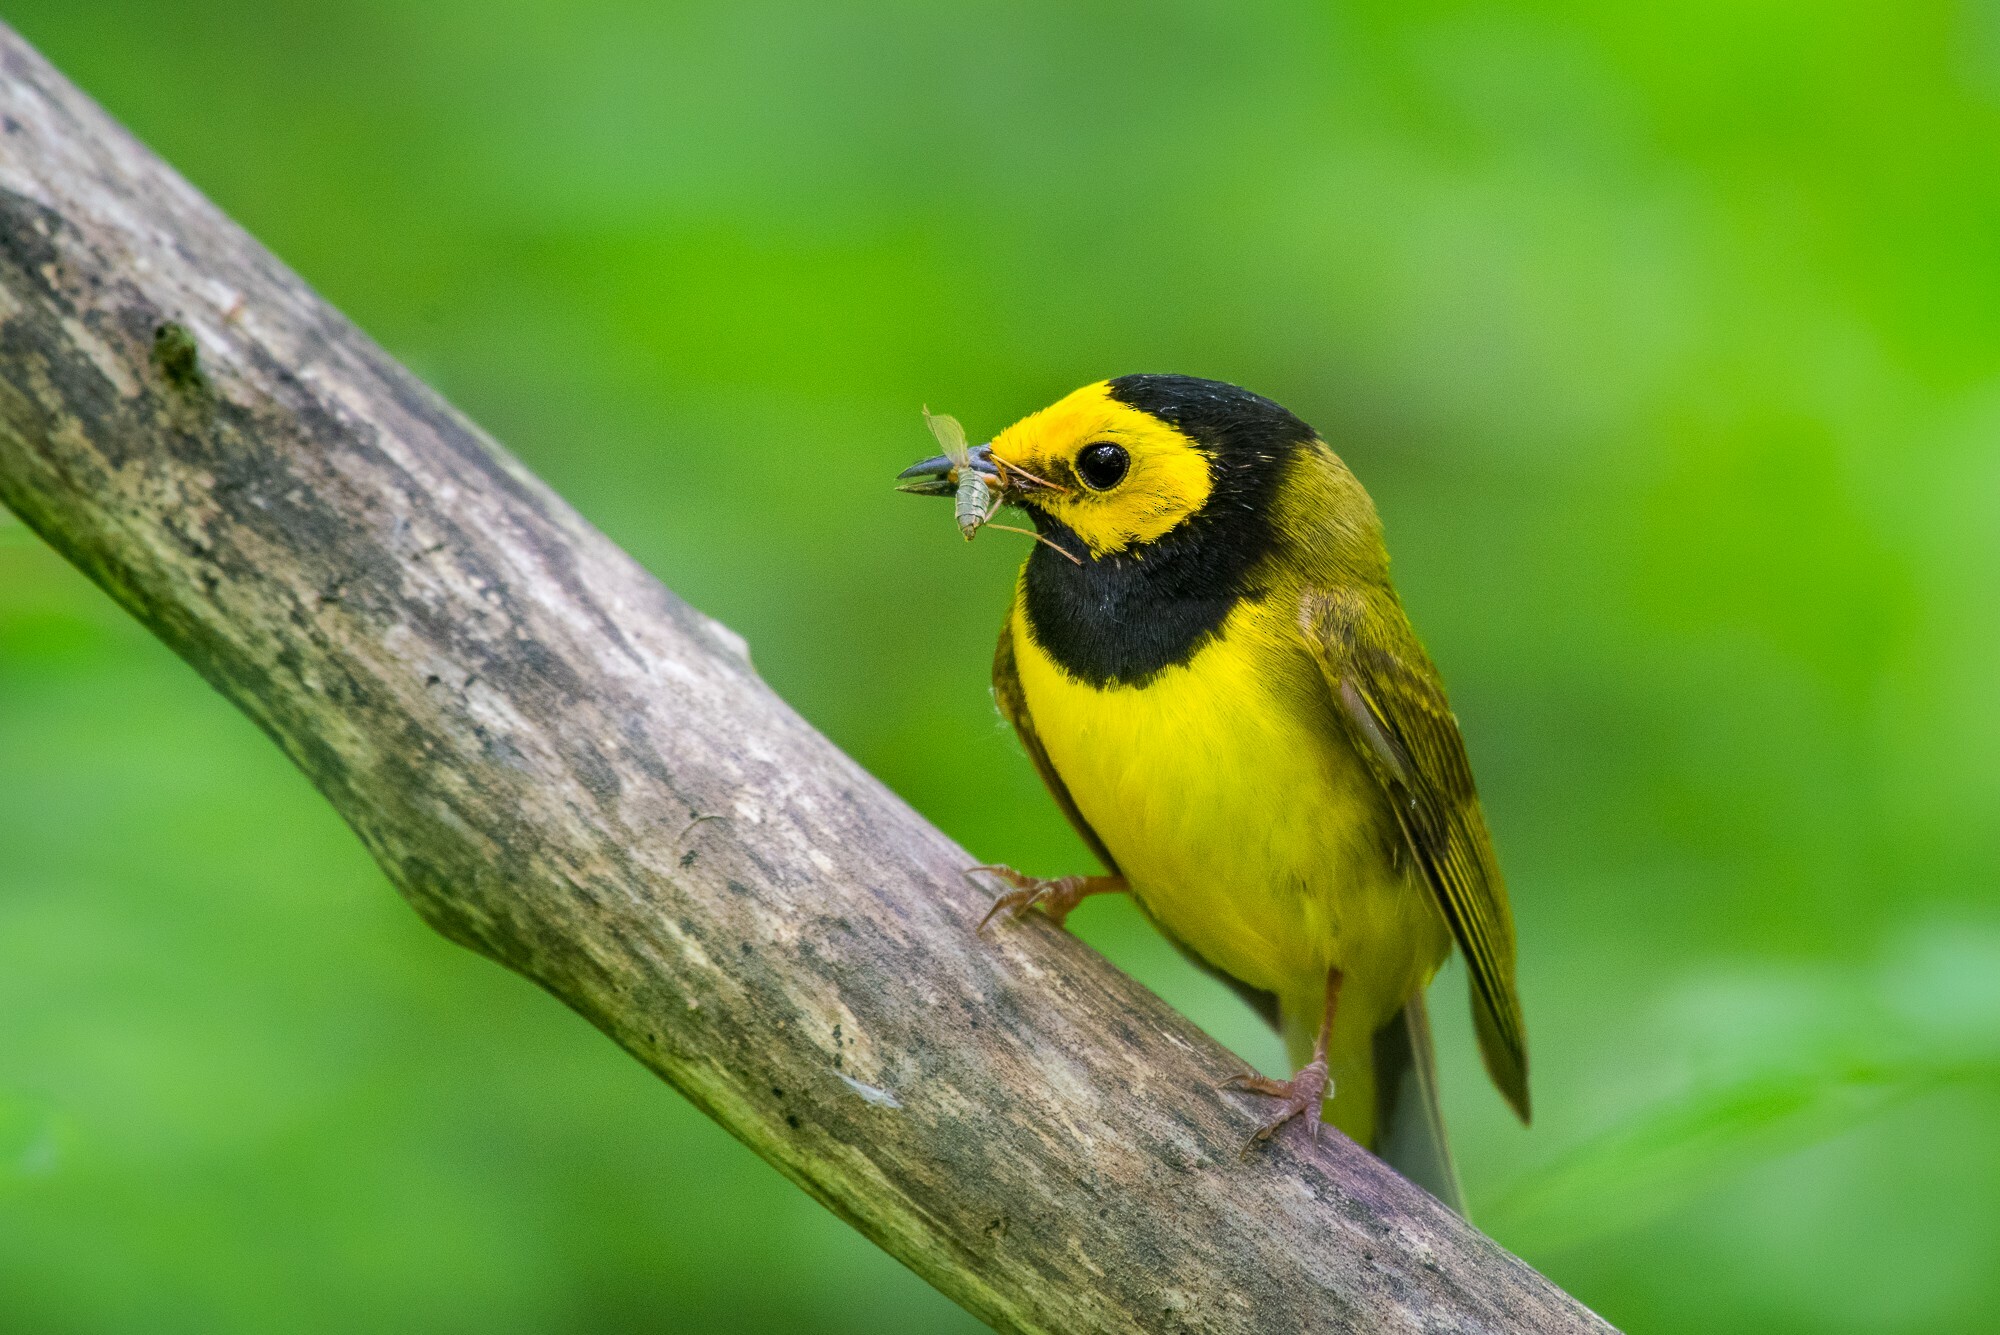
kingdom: Animalia
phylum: Chordata
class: Aves
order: Passeriformes
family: Parulidae
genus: Setophaga
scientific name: Setophaga citrina
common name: Hooded warbler
